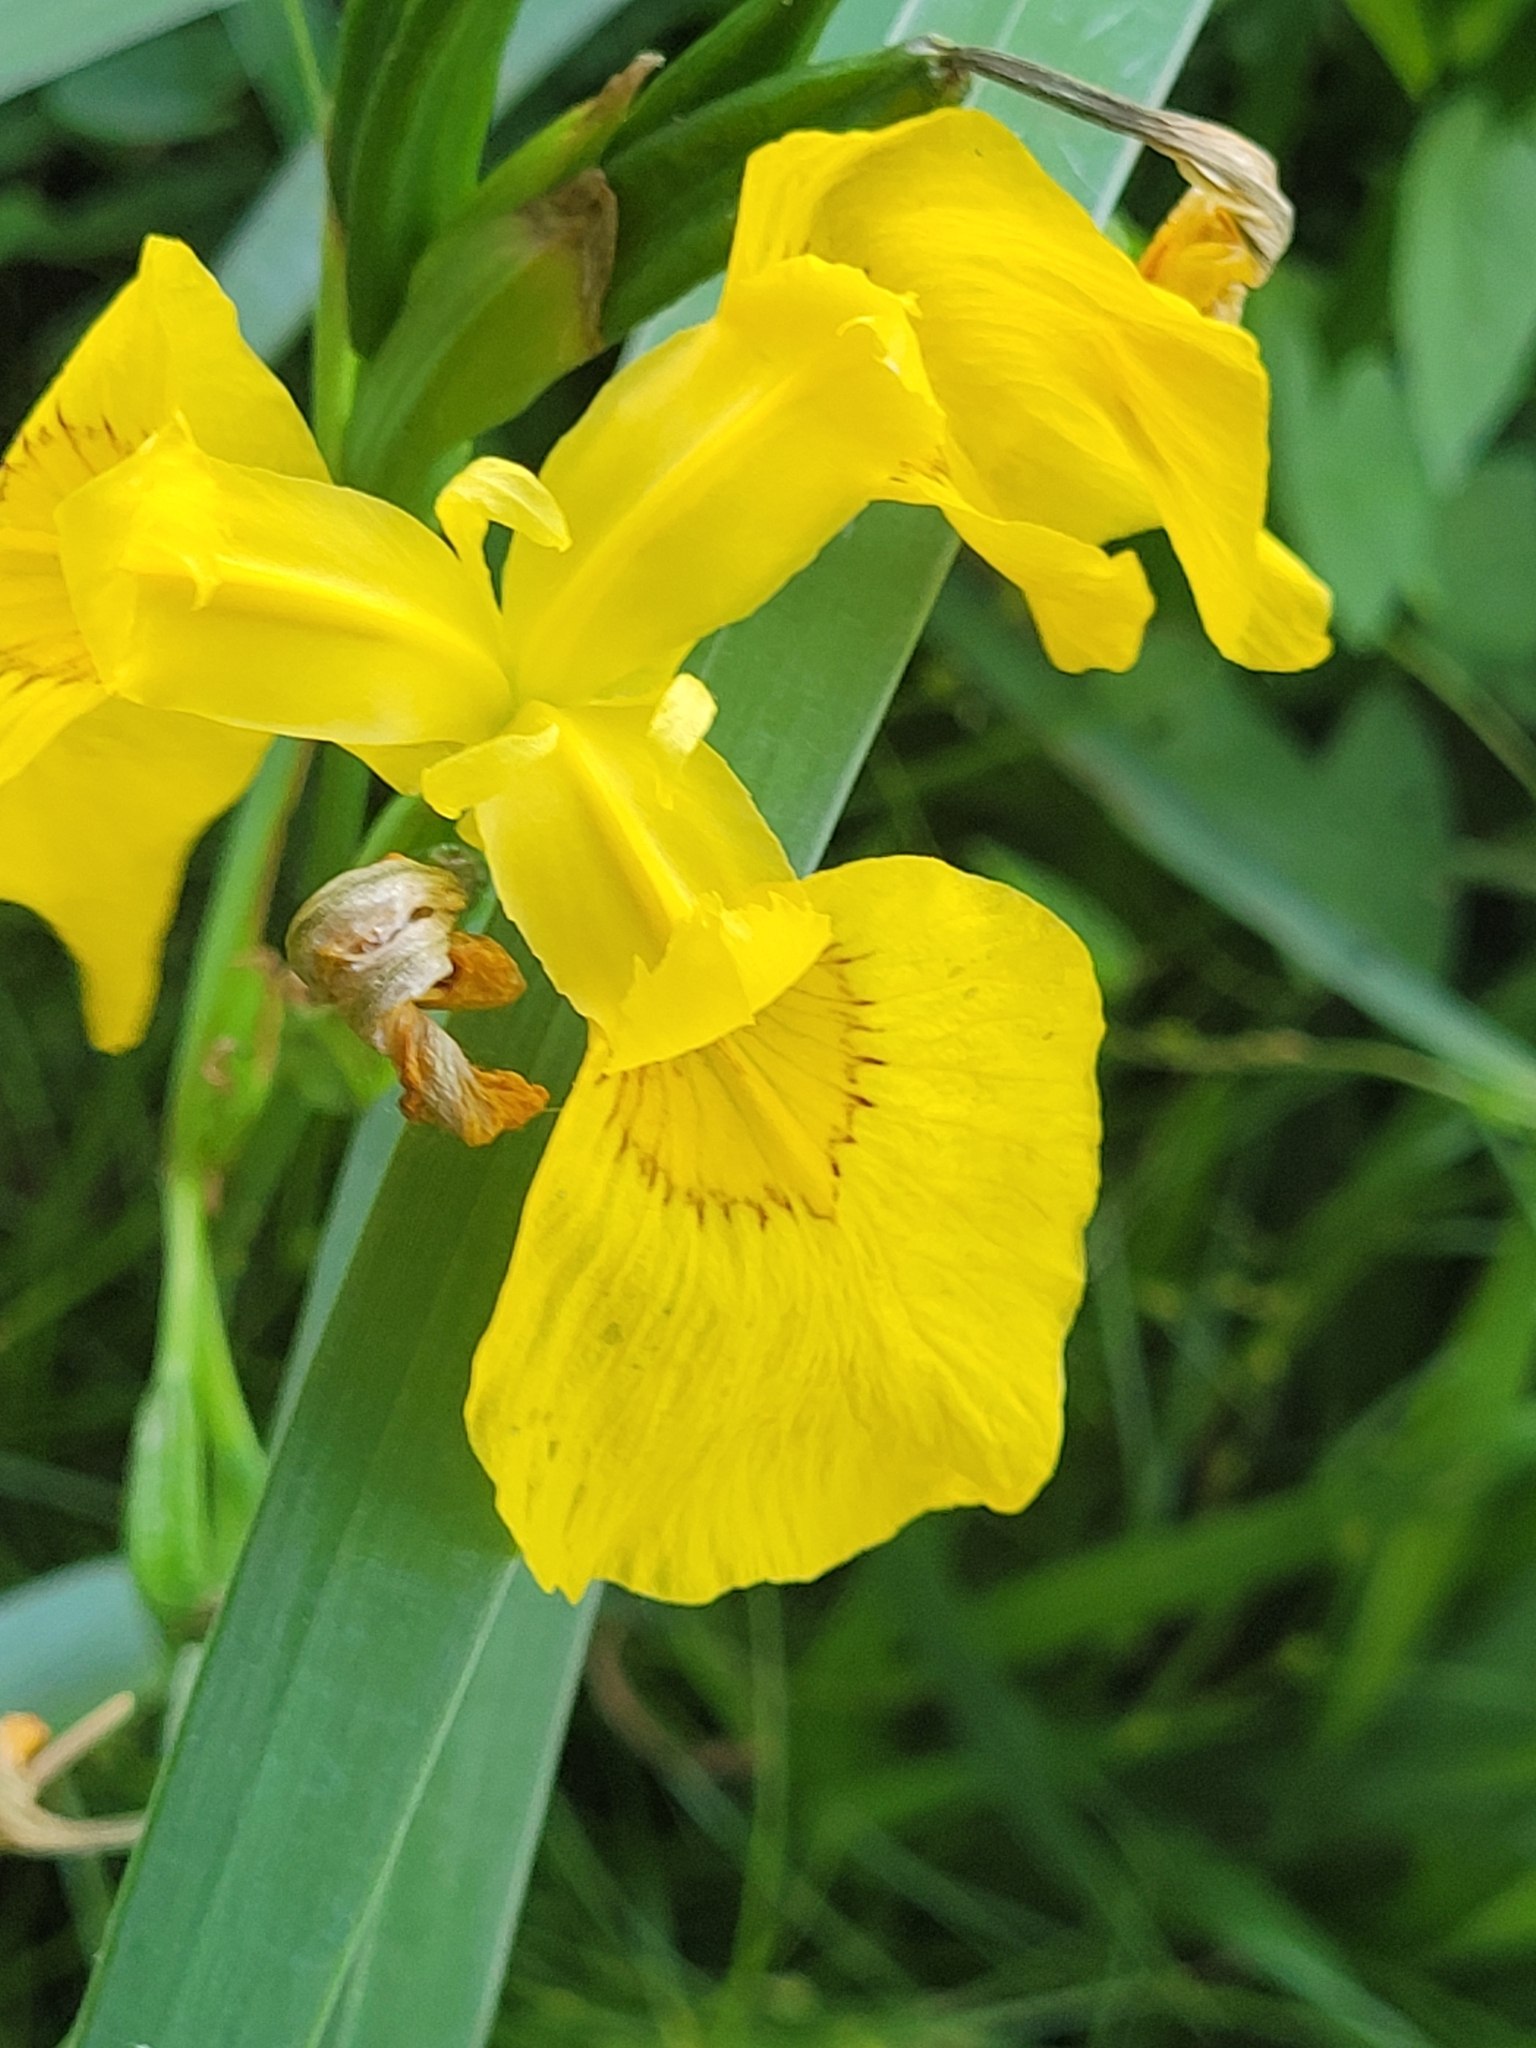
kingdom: Plantae
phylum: Tracheophyta
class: Liliopsida
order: Asparagales
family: Iridaceae
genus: Iris
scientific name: Iris pseudacorus
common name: Yellow flag
